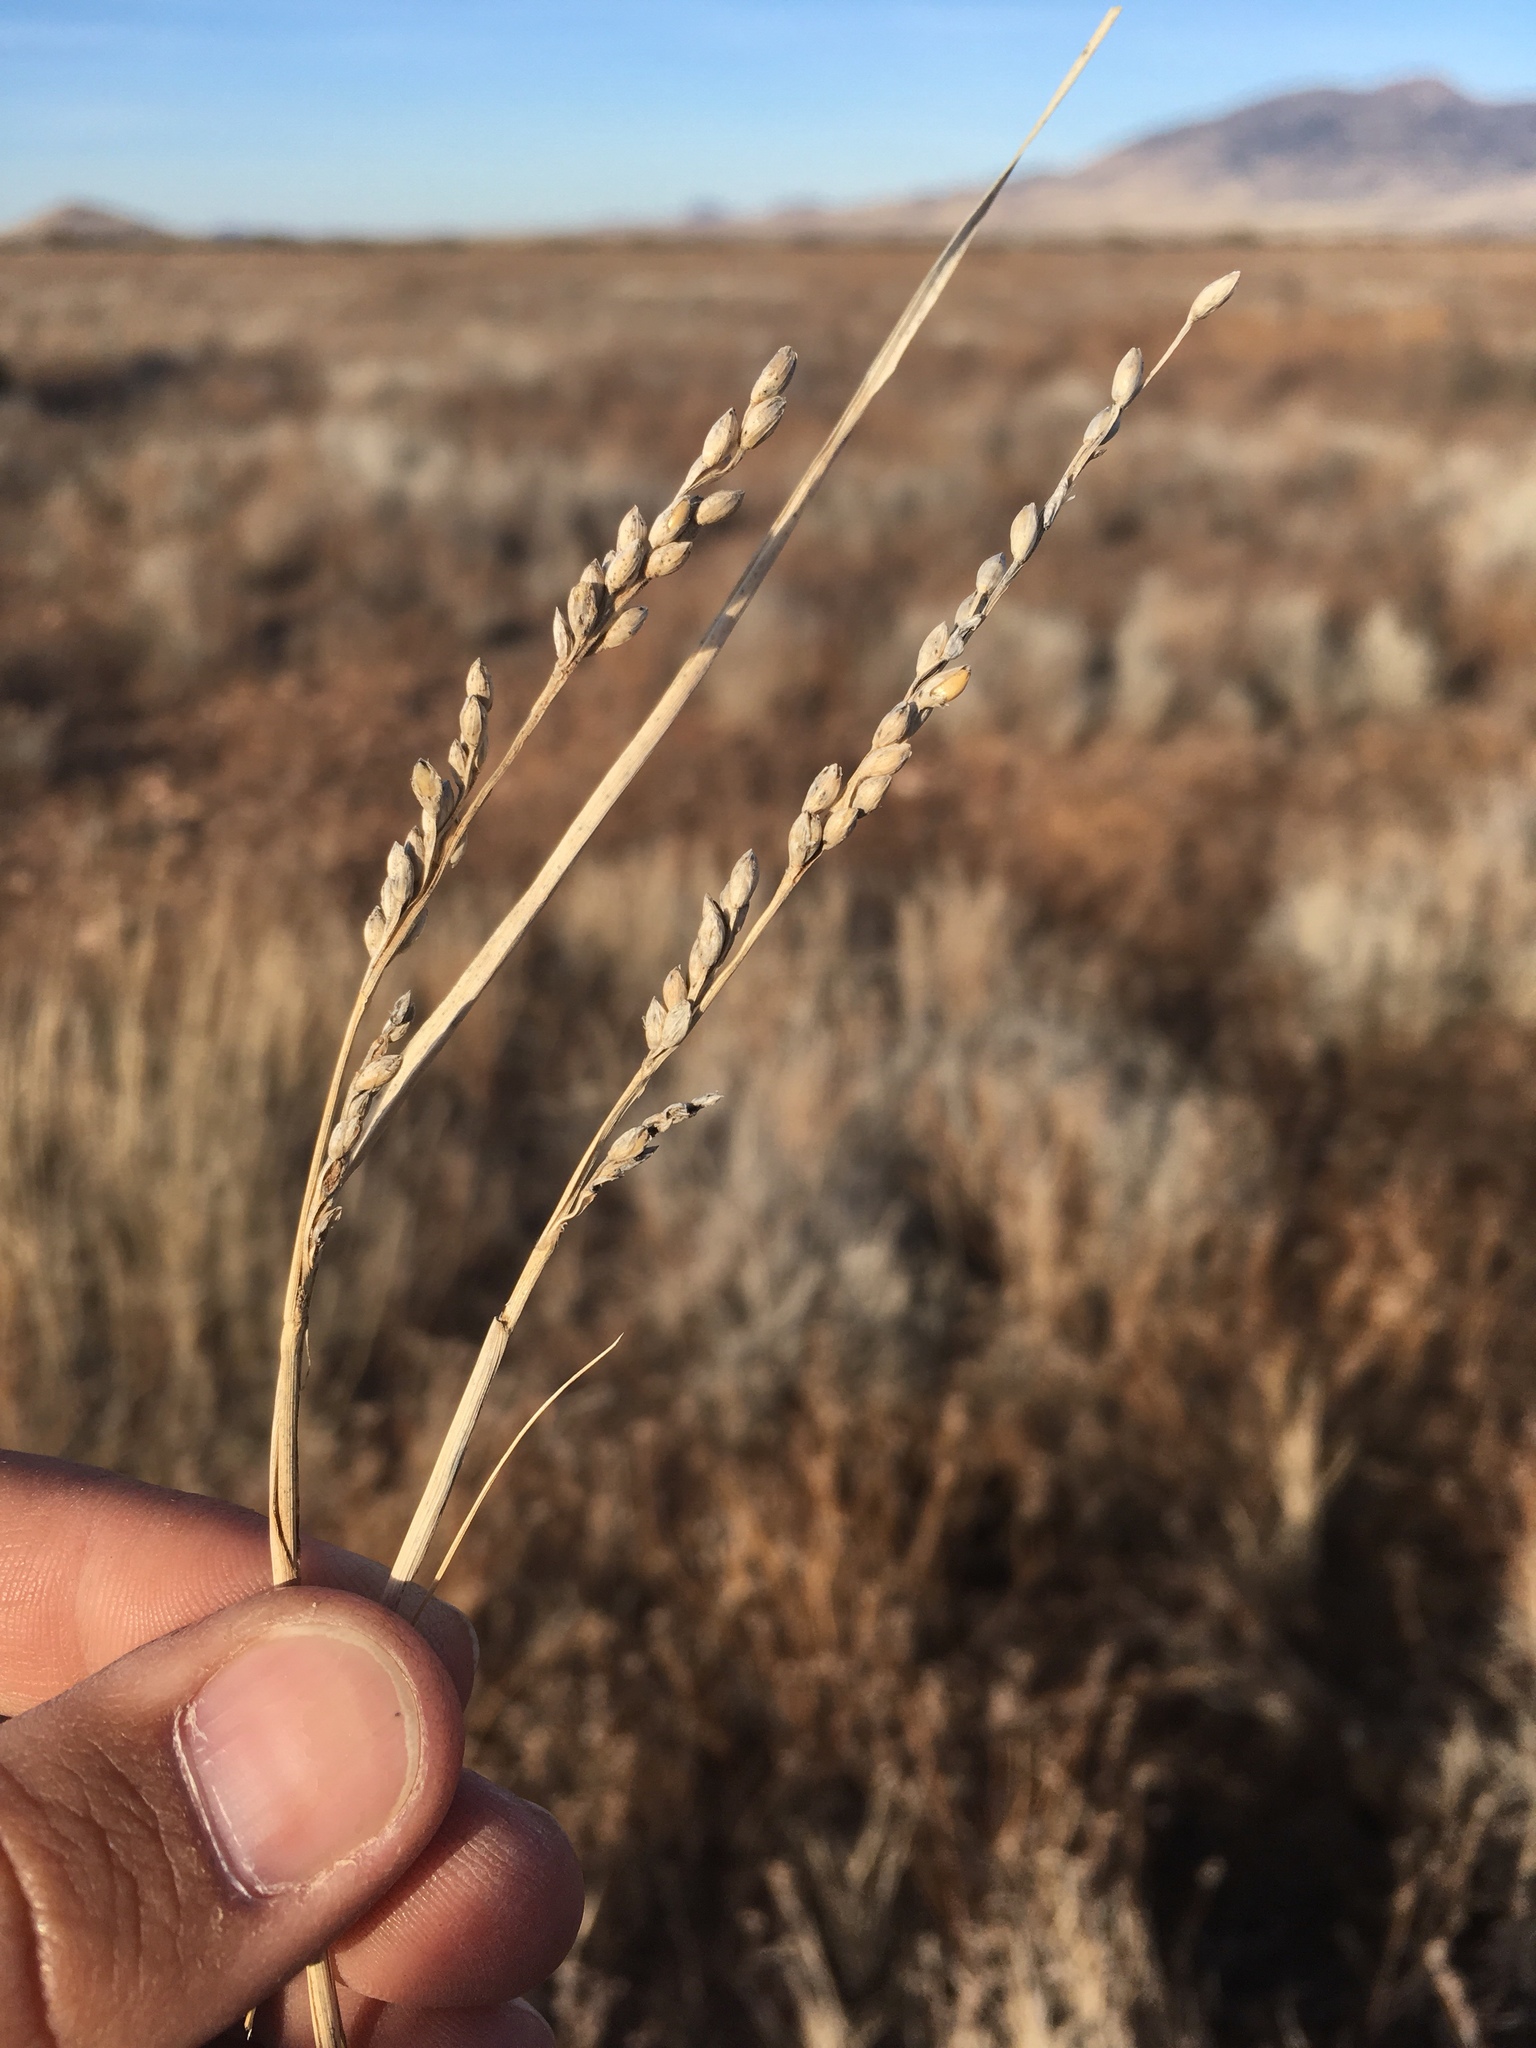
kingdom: Plantae
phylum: Tracheophyta
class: Liliopsida
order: Poales
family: Poaceae
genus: Hopia
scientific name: Hopia obtusa
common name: Vine-mesquite
